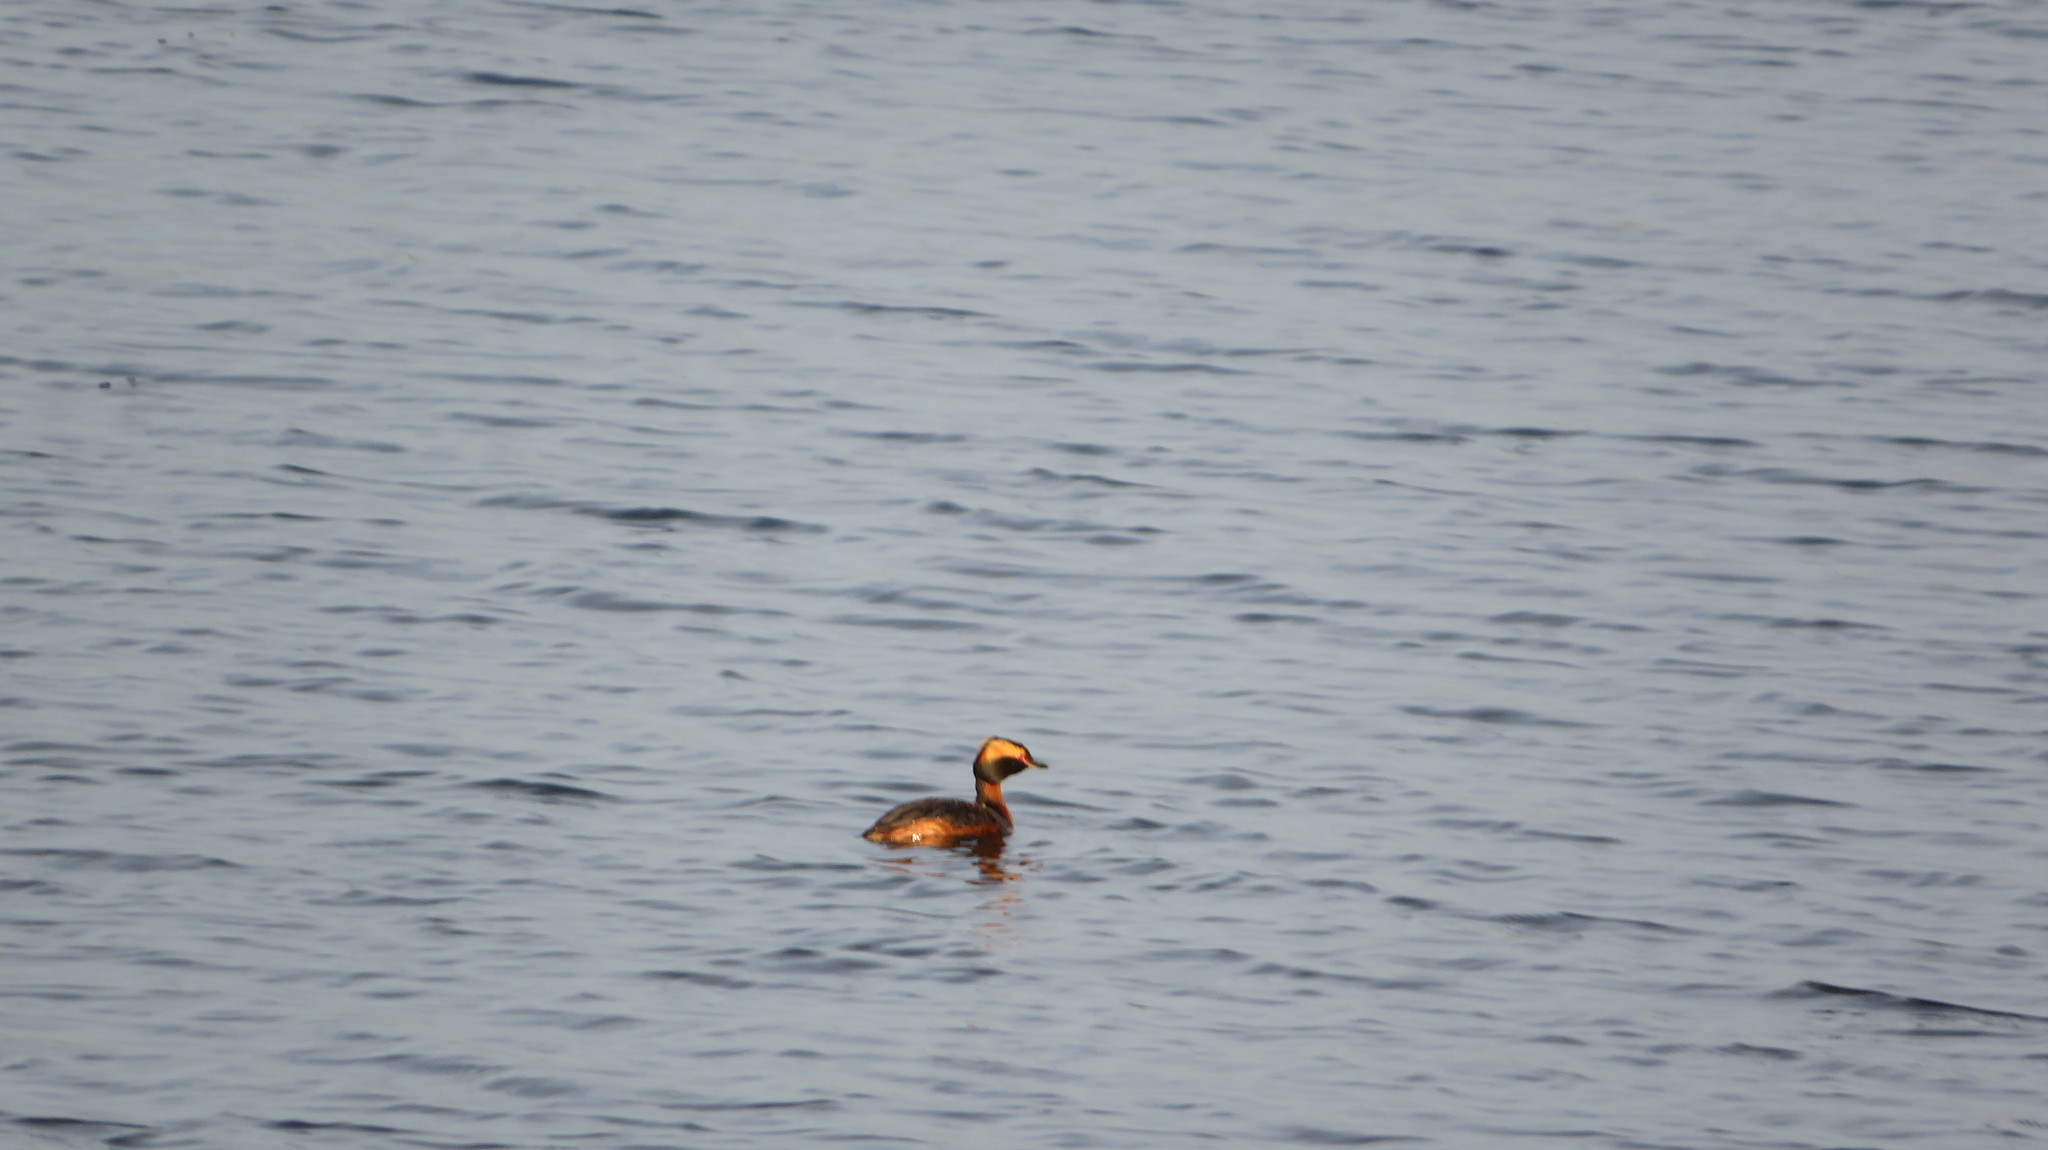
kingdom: Animalia
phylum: Chordata
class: Aves
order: Podicipediformes
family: Podicipedidae
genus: Podiceps
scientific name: Podiceps auritus
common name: Horned grebe
